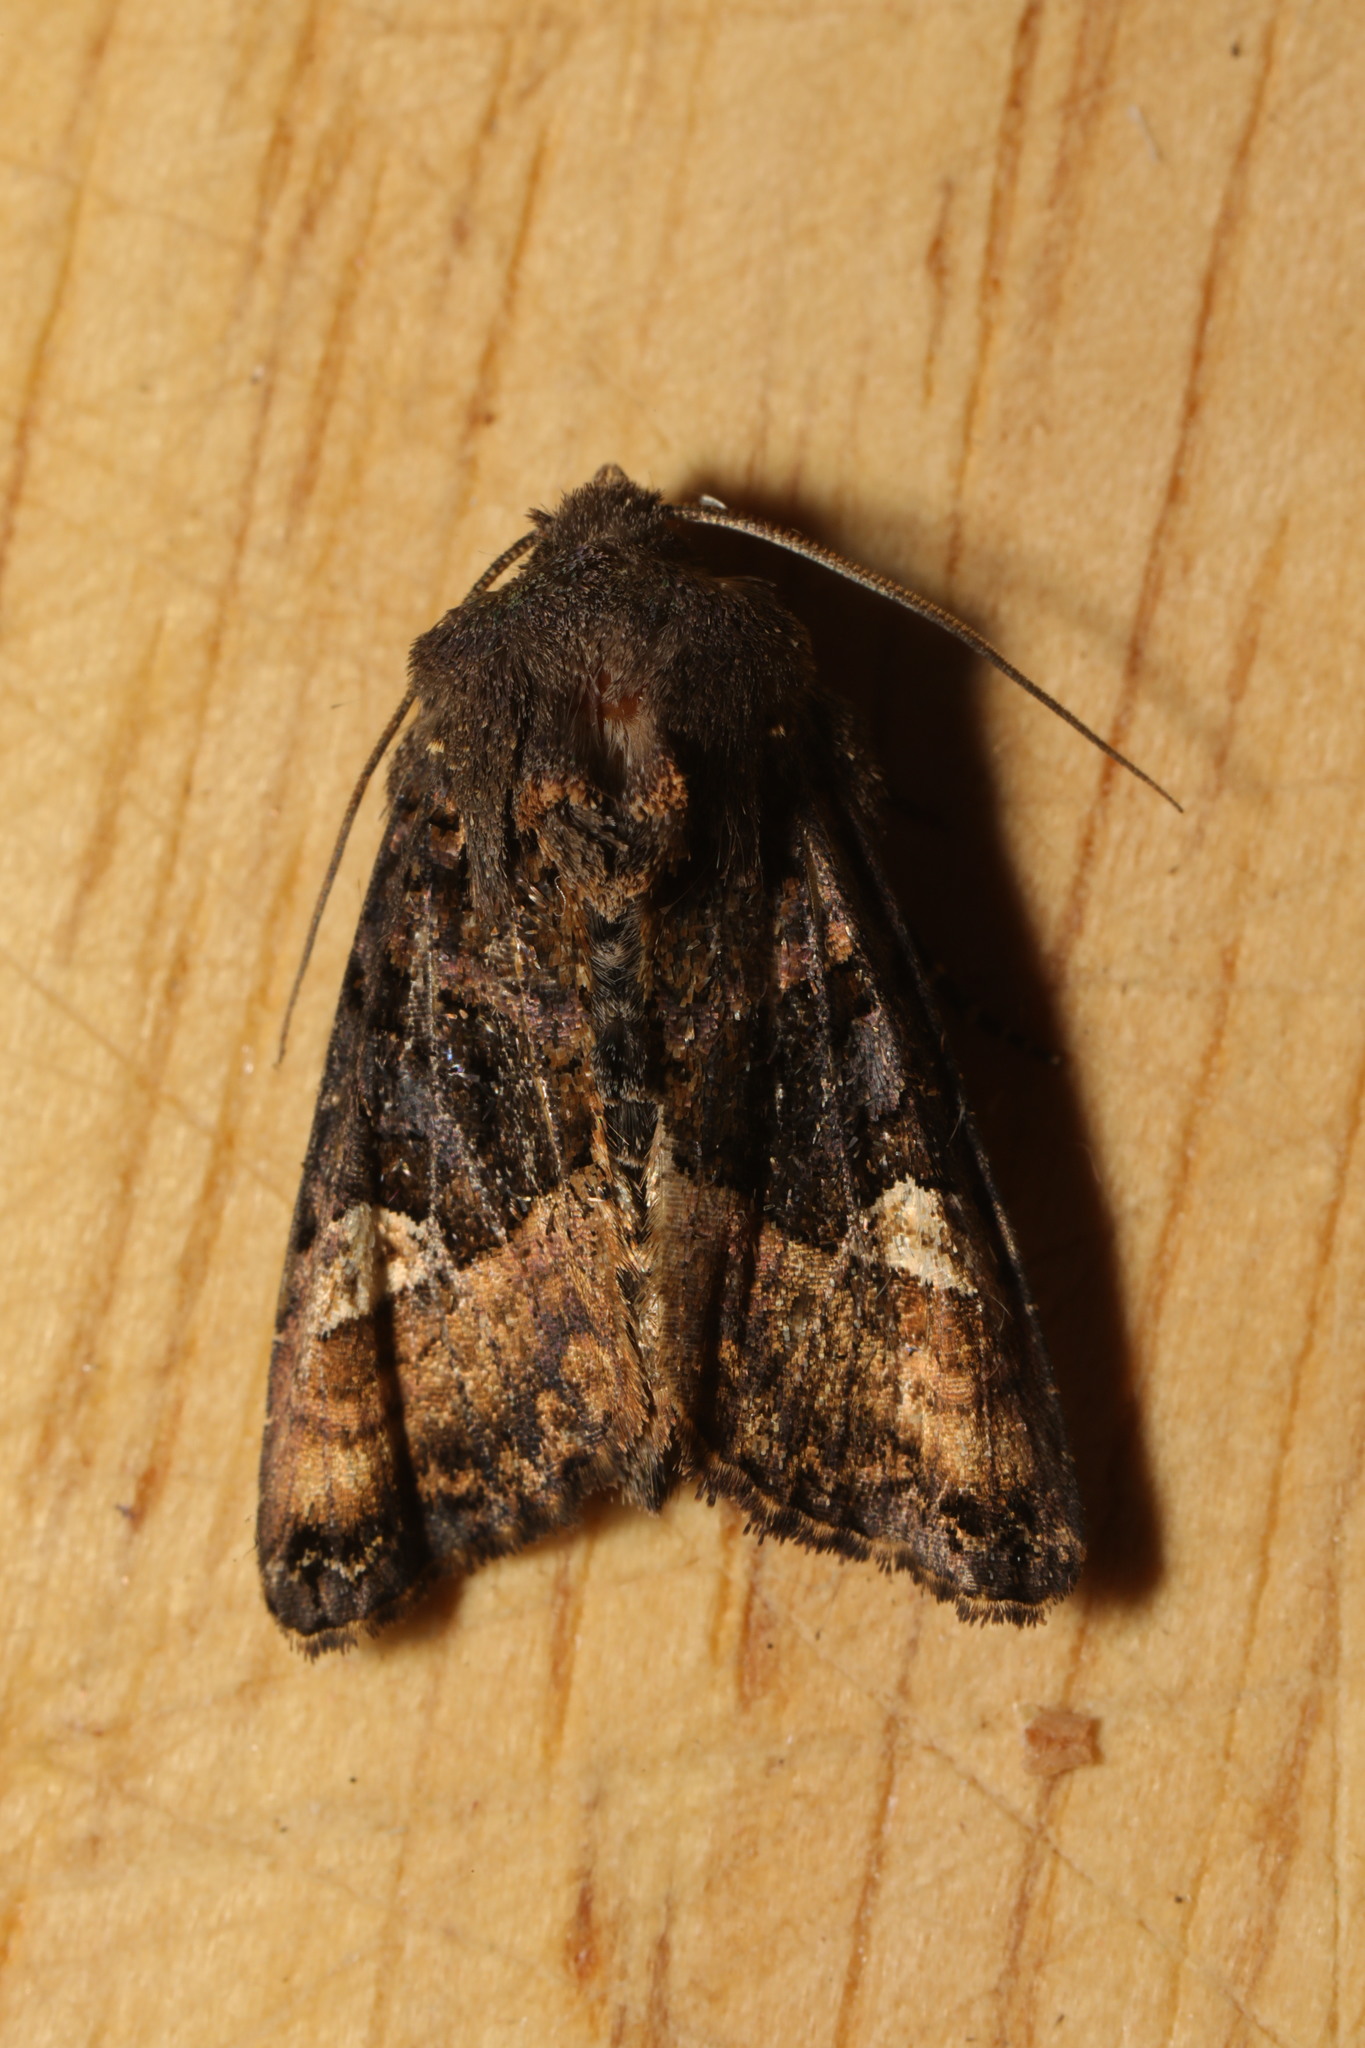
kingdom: Animalia
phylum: Arthropoda
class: Insecta
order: Lepidoptera
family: Noctuidae
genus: Euplexia
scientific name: Euplexia lucipara
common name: Small angle shades
